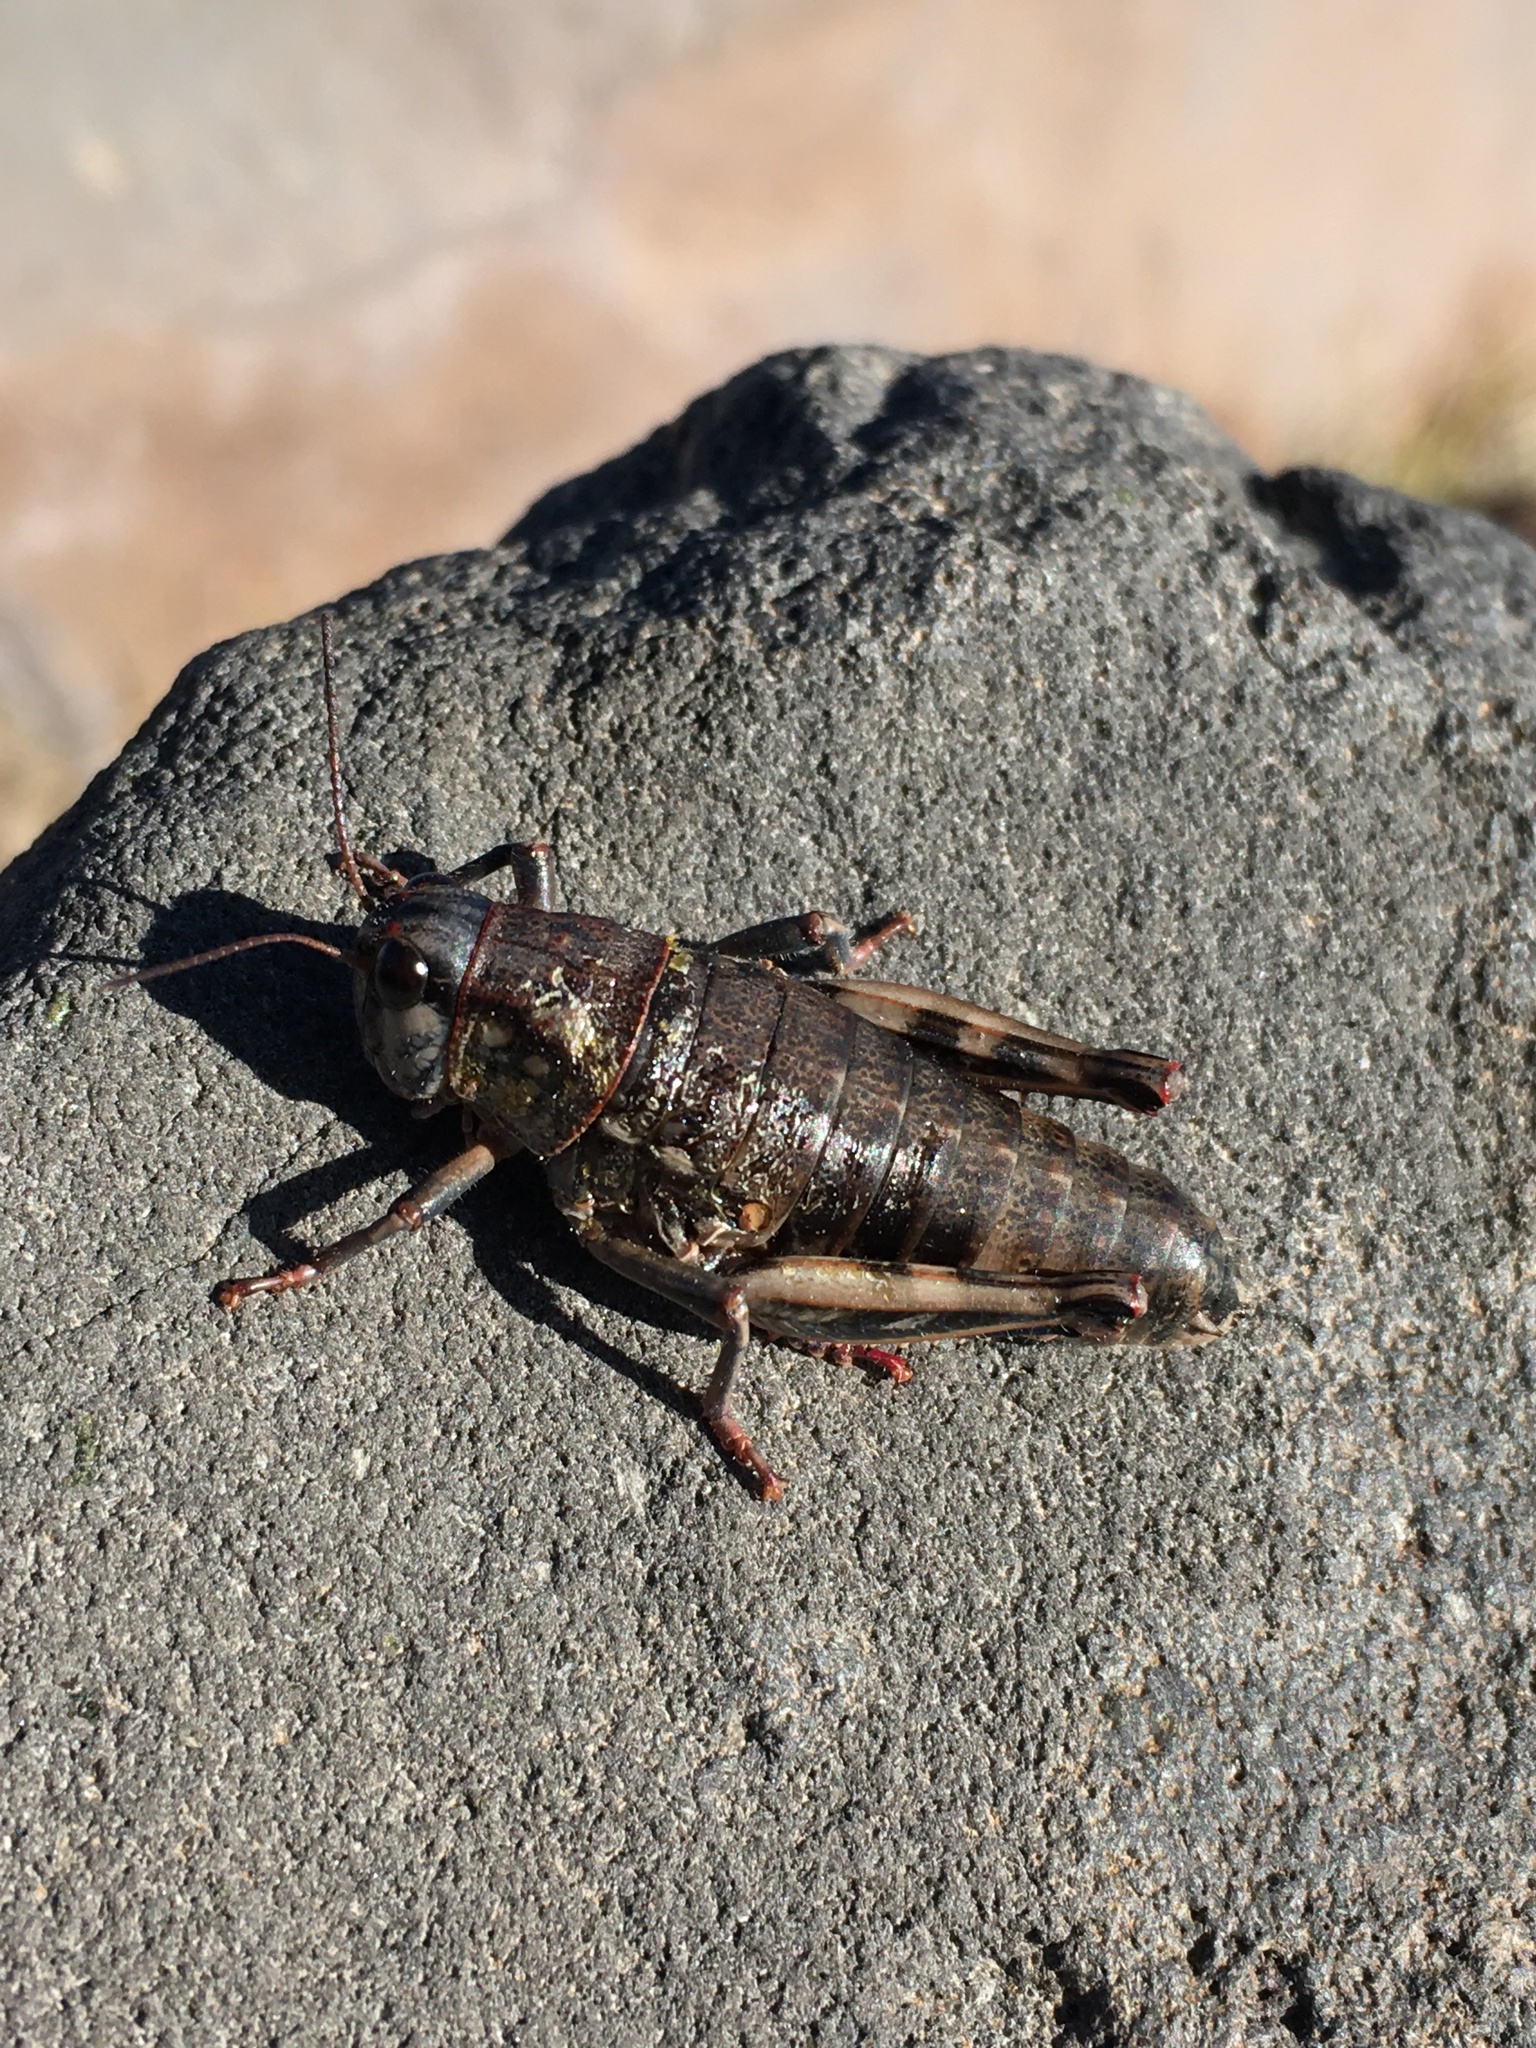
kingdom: Animalia
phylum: Arthropoda
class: Insecta
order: Orthoptera
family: Acrididae
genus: Bradynotes
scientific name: Bradynotes obesa
